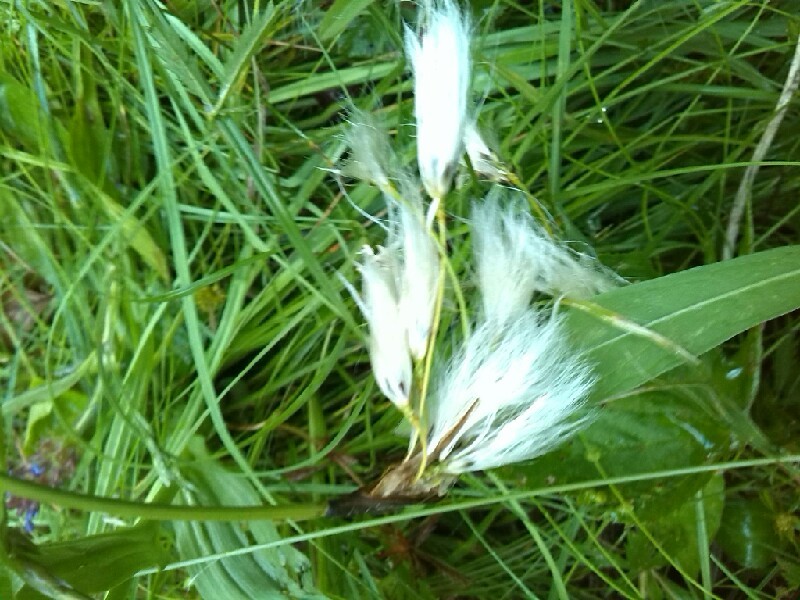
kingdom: Plantae
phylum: Tracheophyta
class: Liliopsida
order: Poales
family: Cyperaceae
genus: Eriophorum
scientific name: Eriophorum latifolium
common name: Broad-leaved cottongrass
